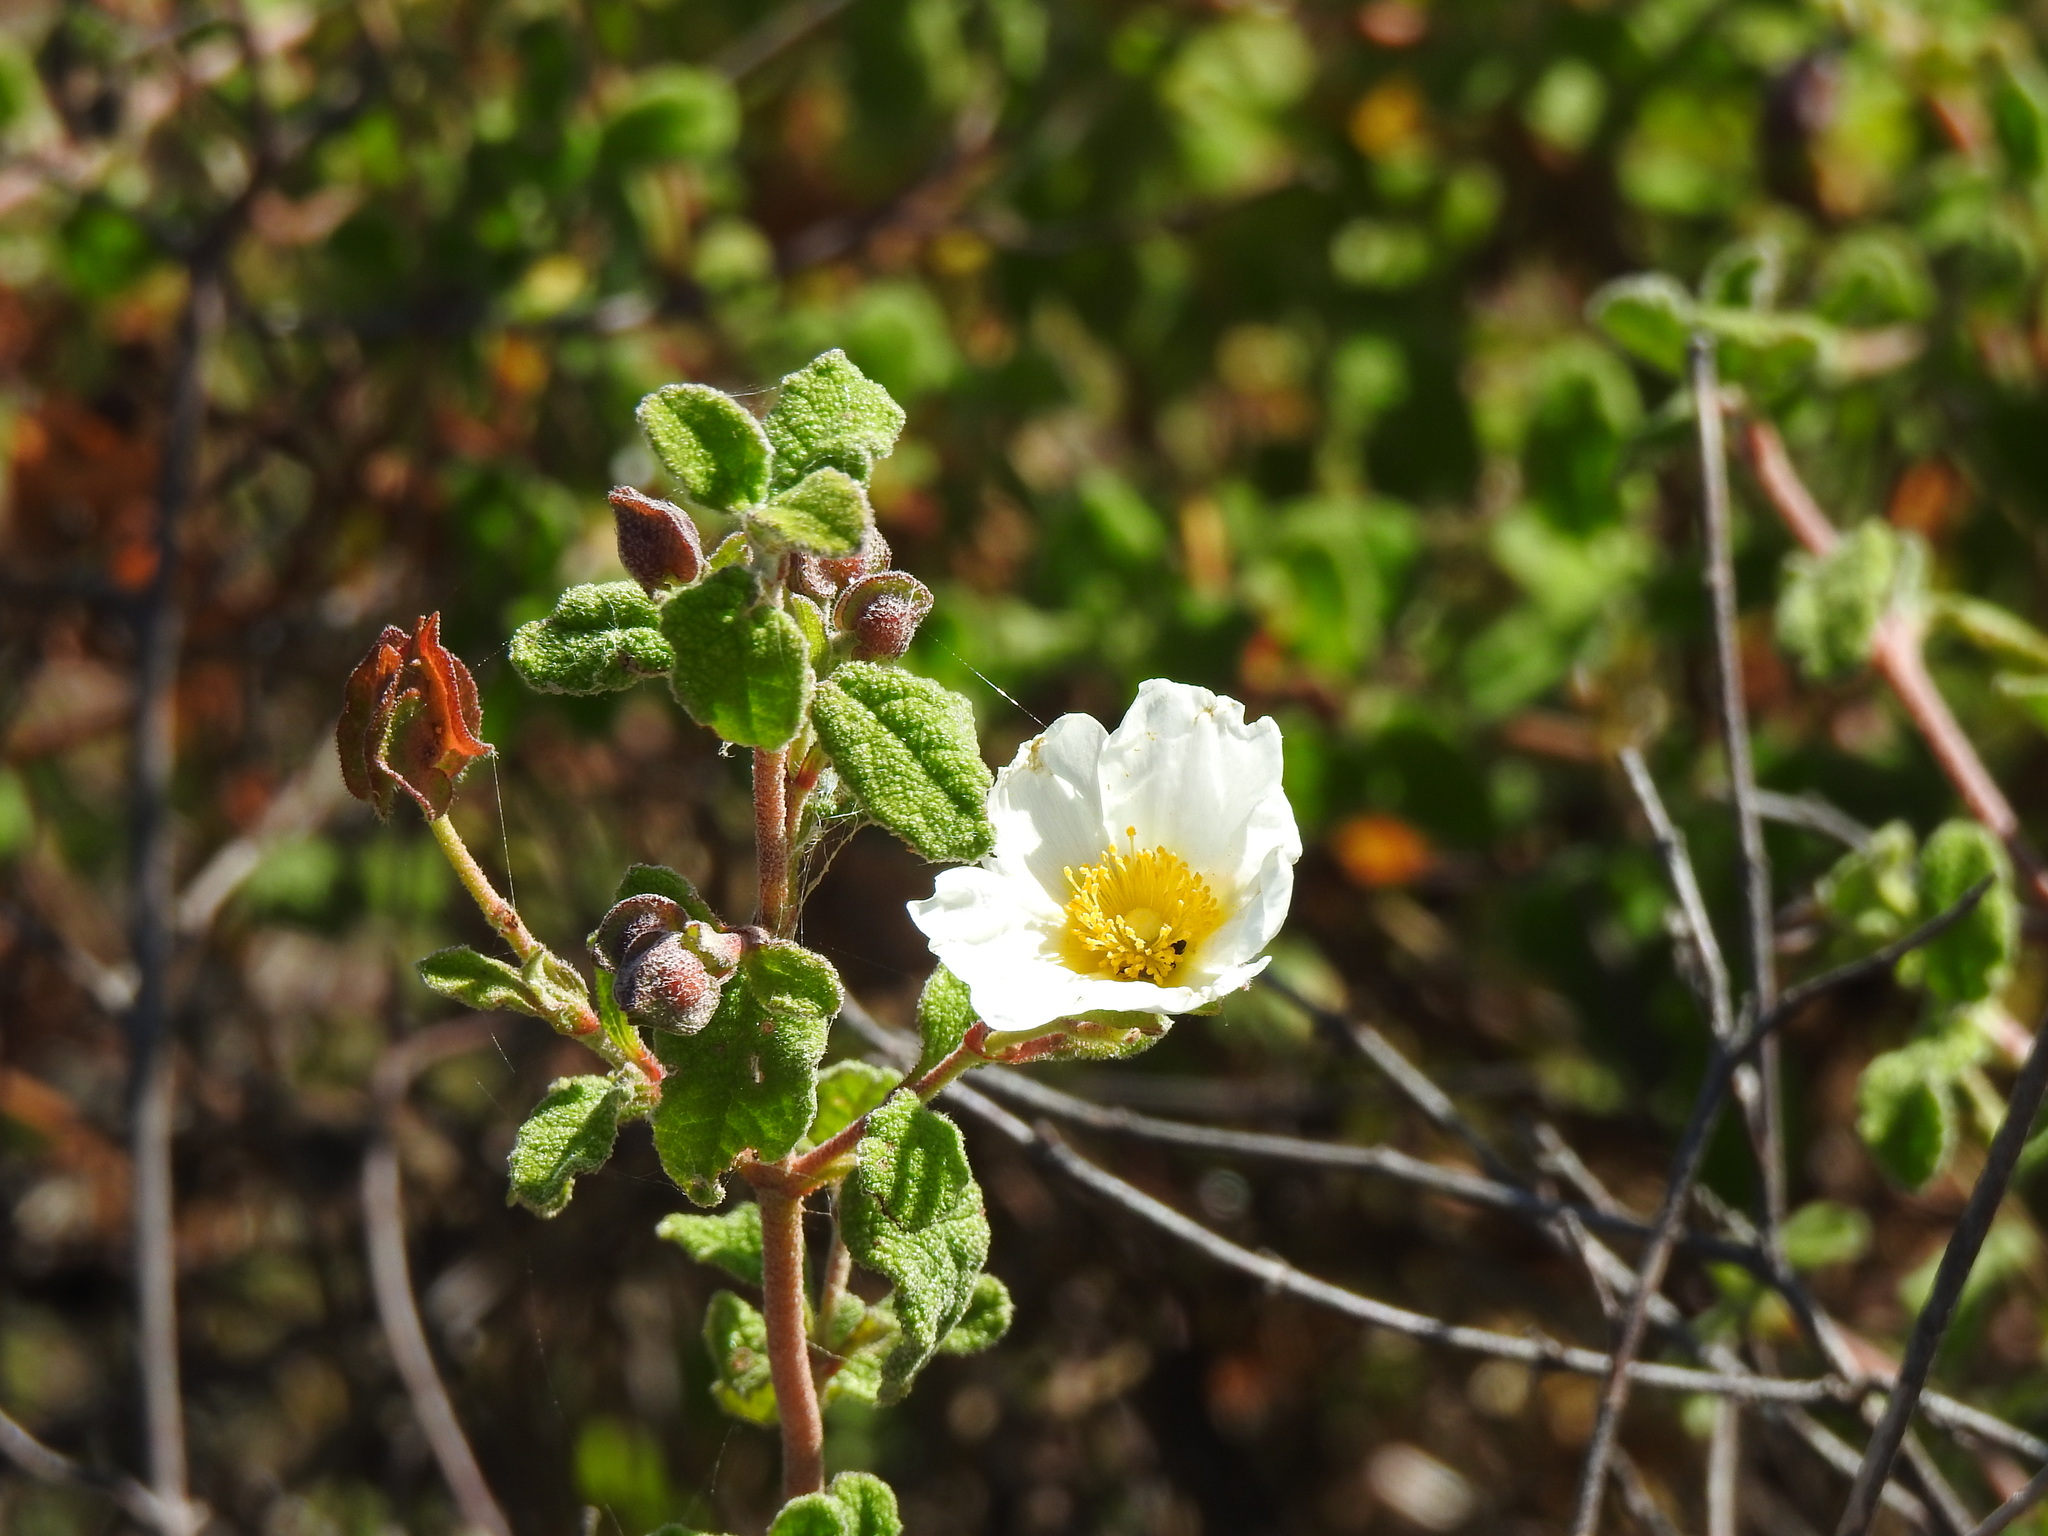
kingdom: Plantae
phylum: Tracheophyta
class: Magnoliopsida
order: Malvales
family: Cistaceae
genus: Cistus
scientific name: Cistus salviifolius
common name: Salvia cistus
